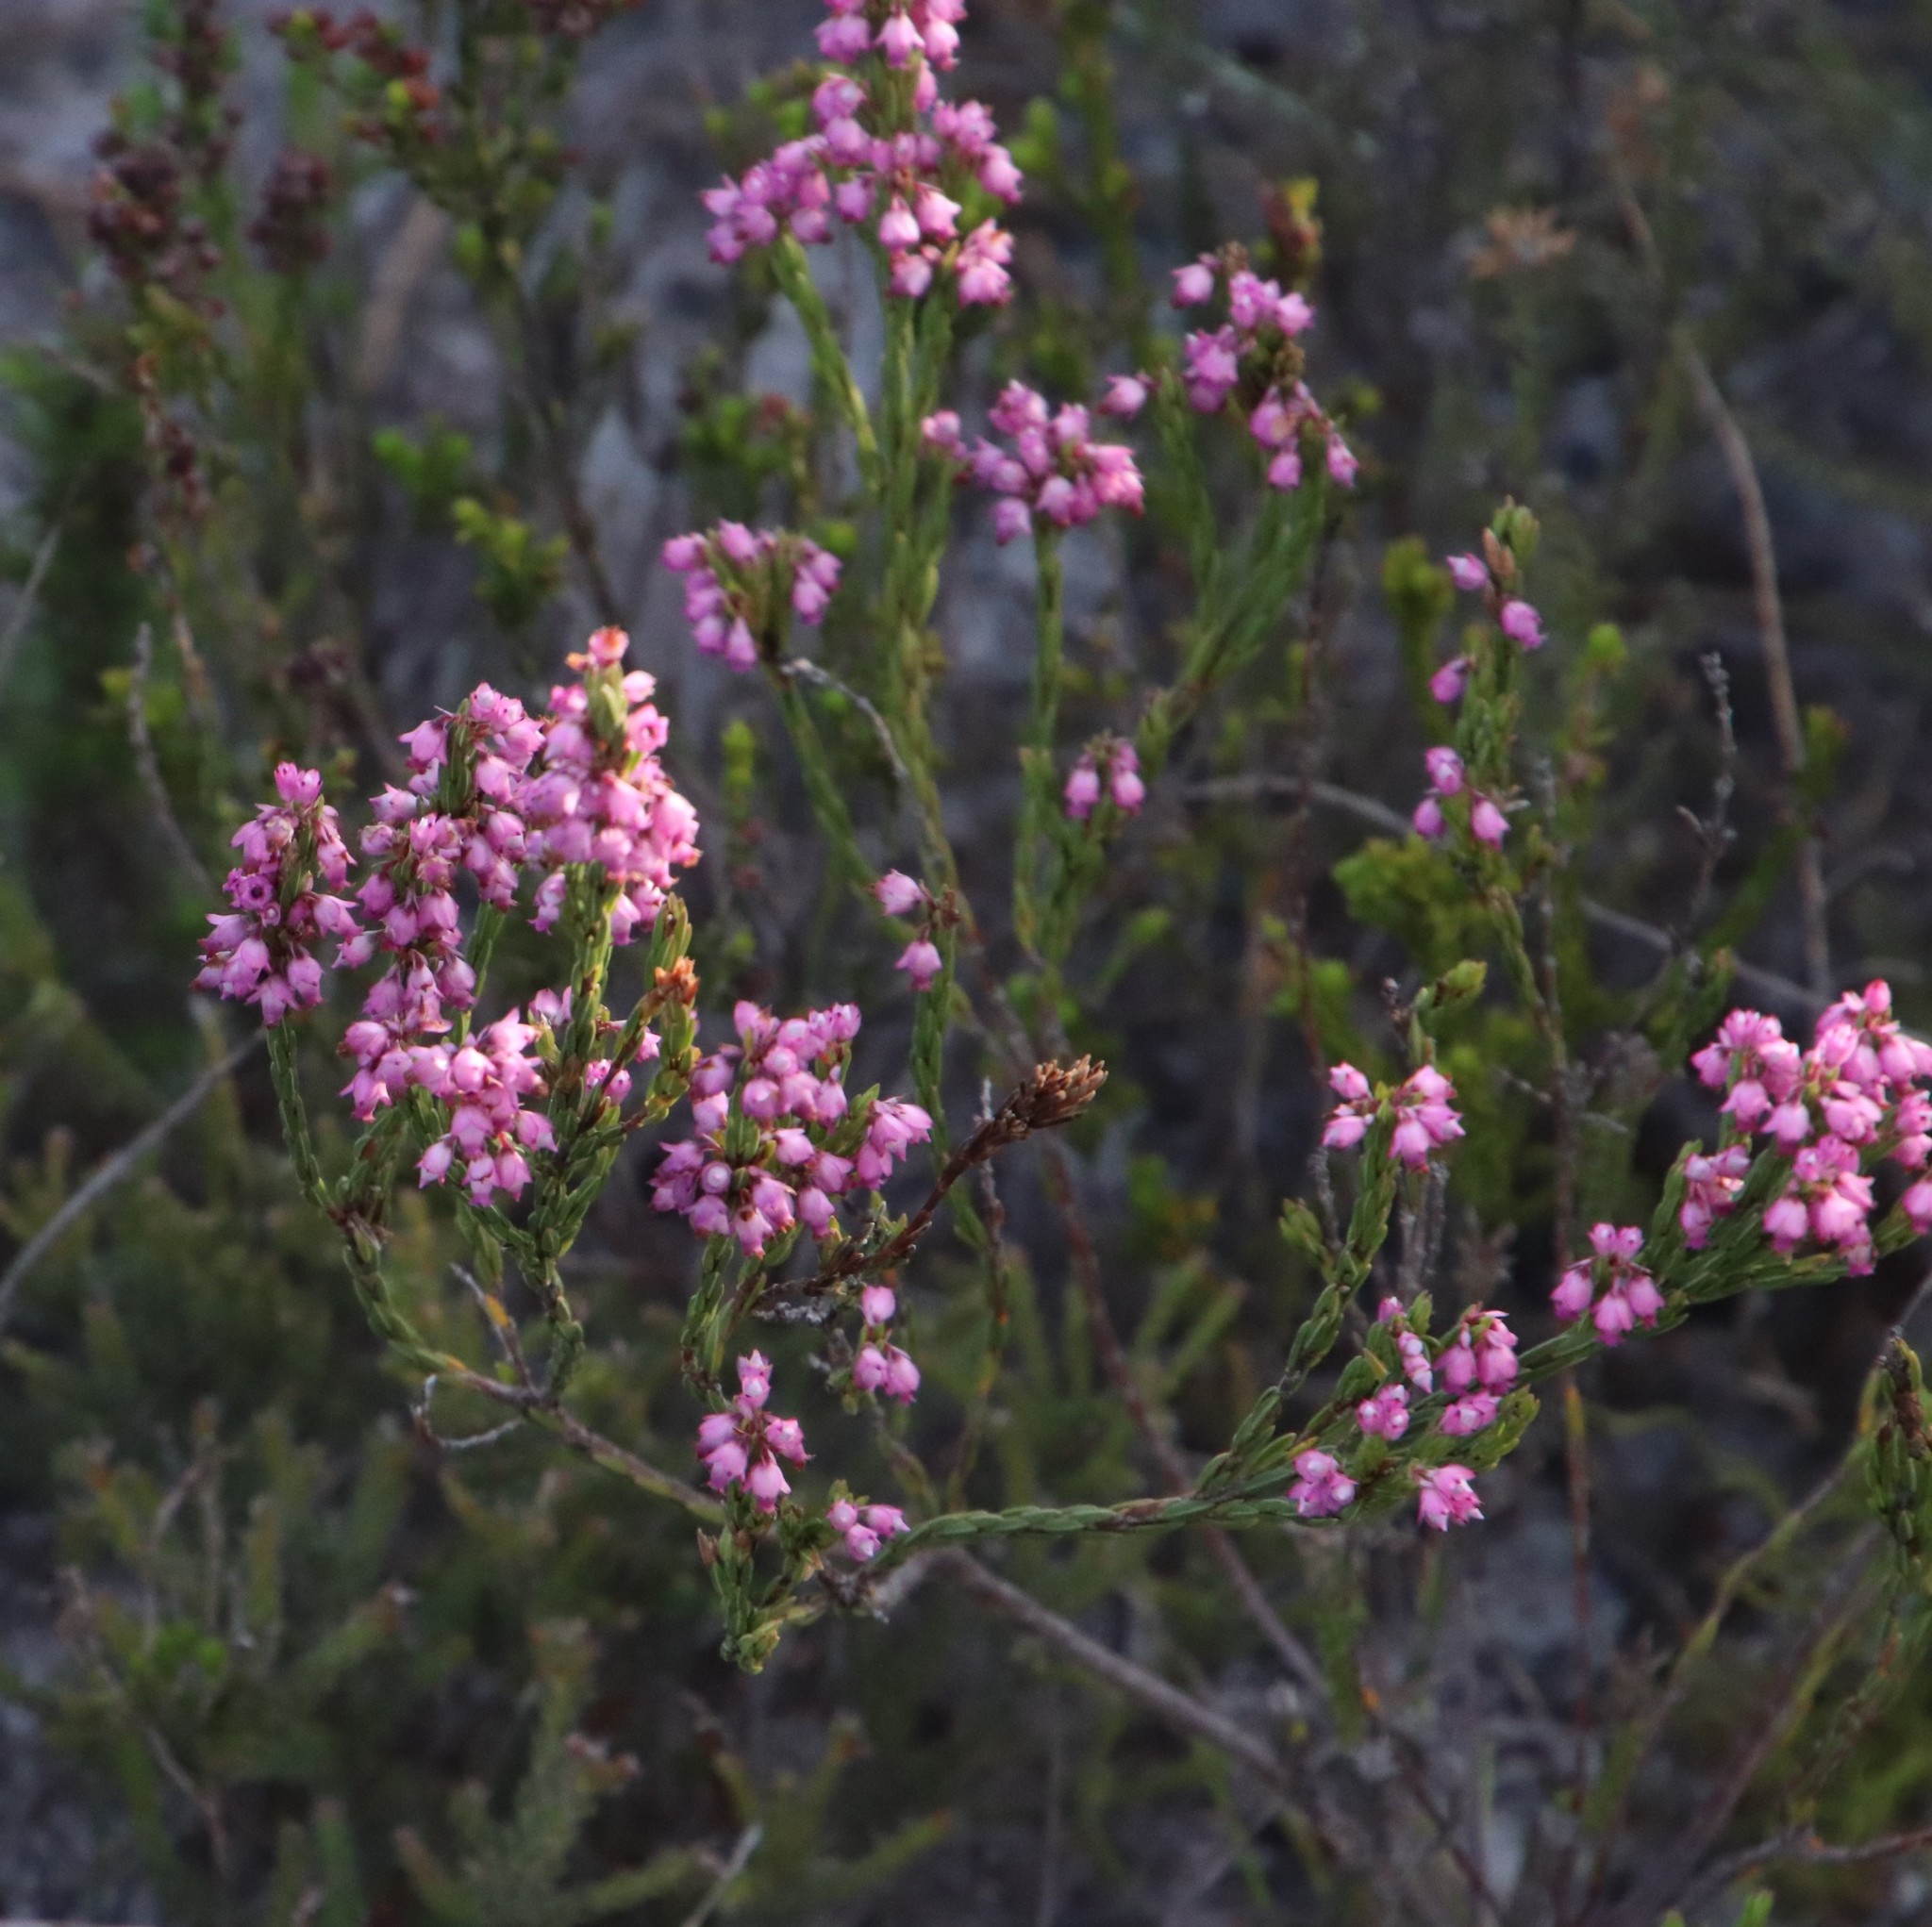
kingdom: Plantae
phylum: Tracheophyta
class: Magnoliopsida
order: Ericales
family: Ericaceae
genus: Erica
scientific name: Erica corifolia
